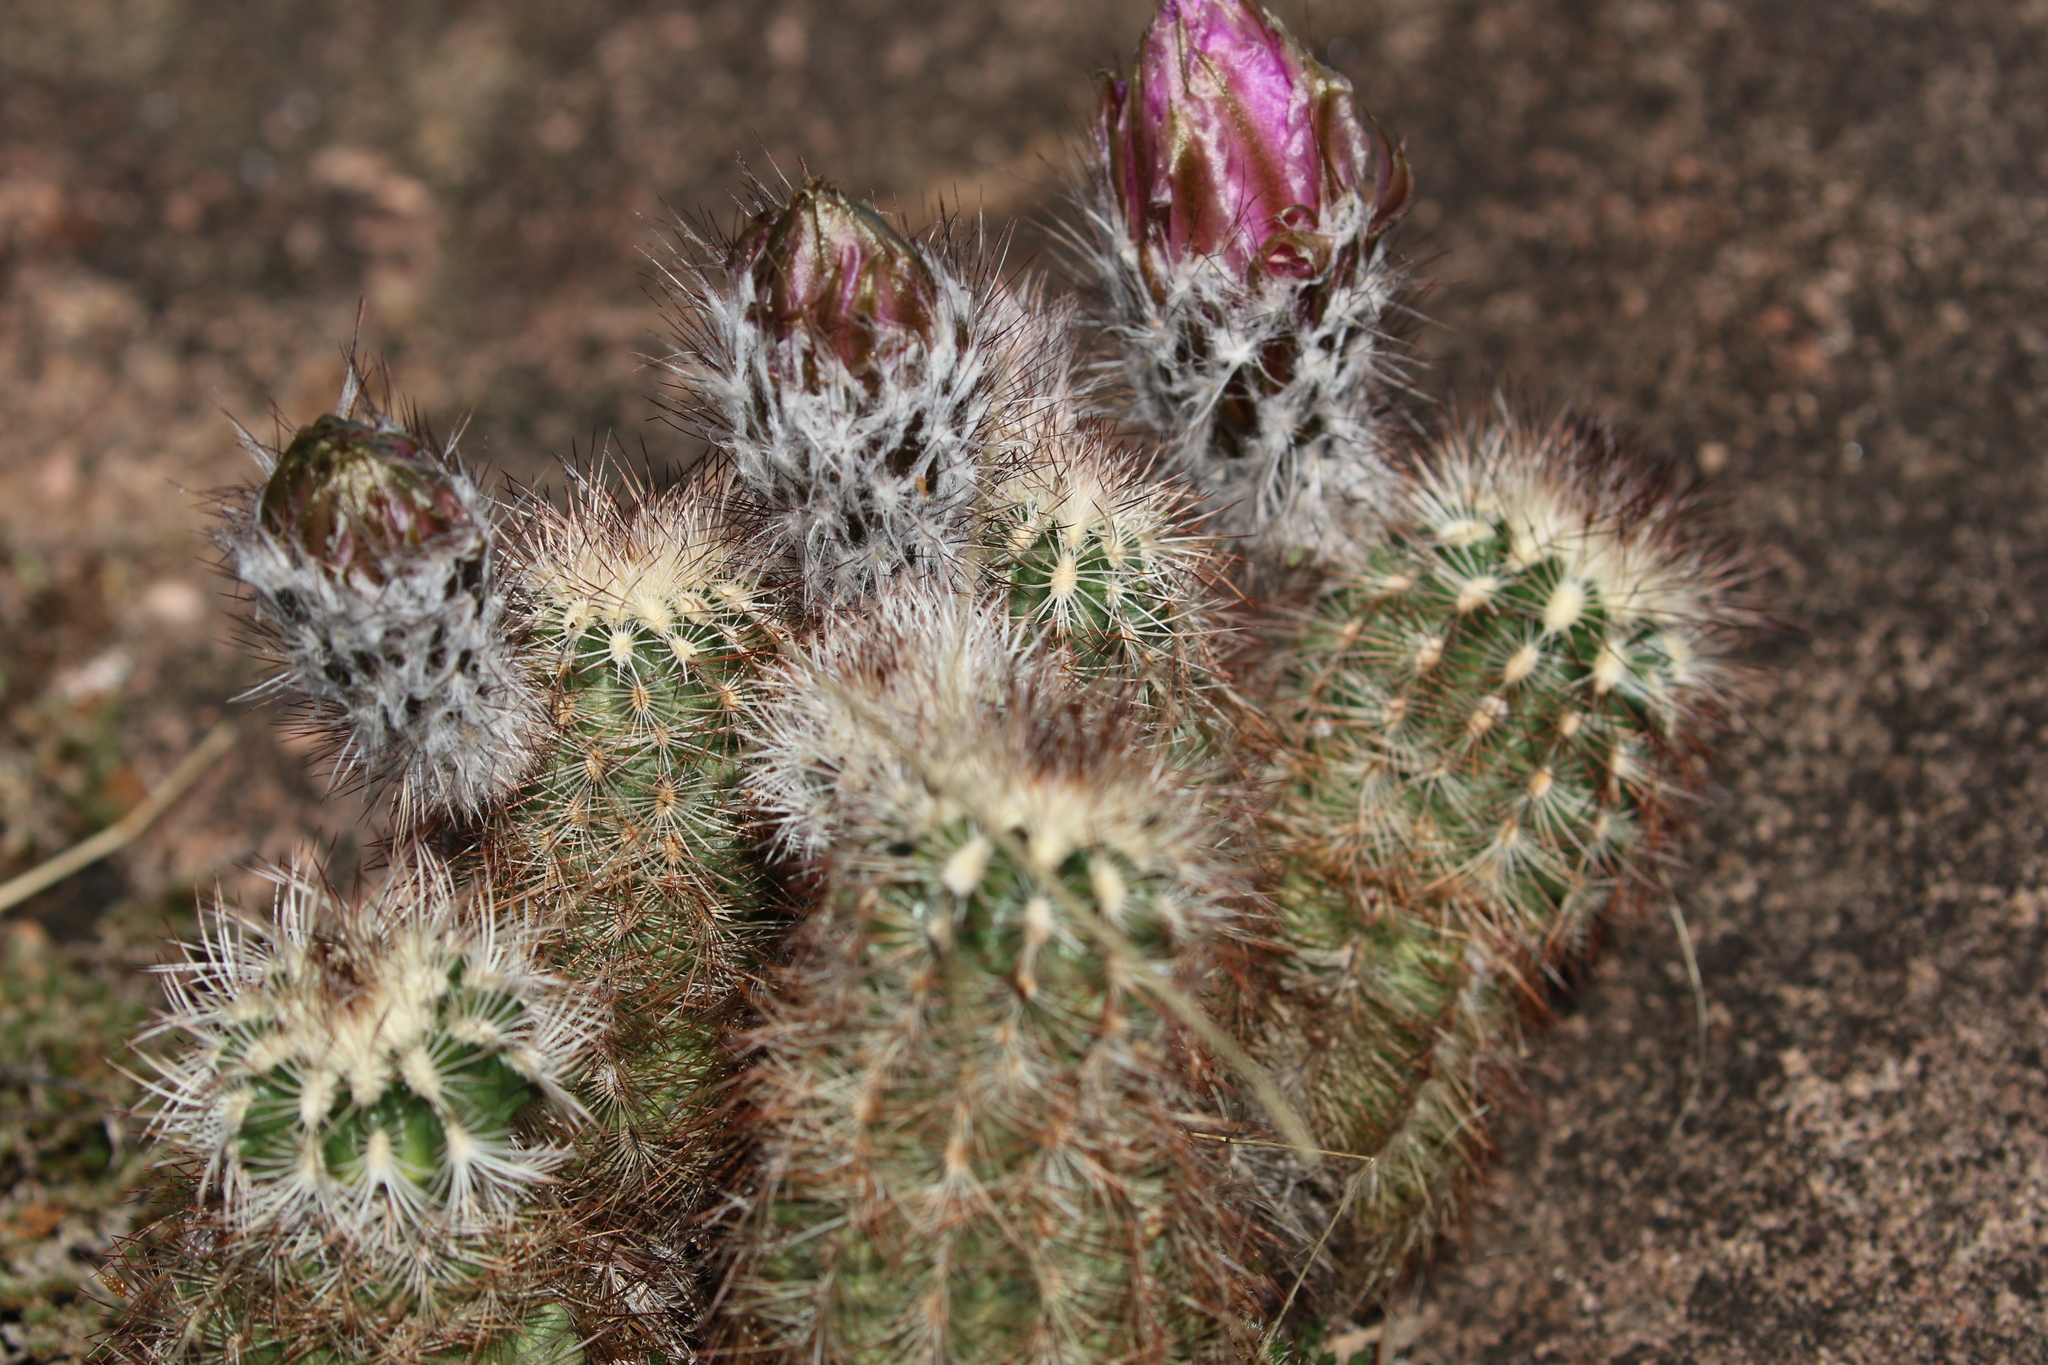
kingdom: Plantae
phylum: Tracheophyta
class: Magnoliopsida
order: Caryophyllales
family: Cactaceae
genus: Echinocereus
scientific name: Echinocereus reichenbachii
